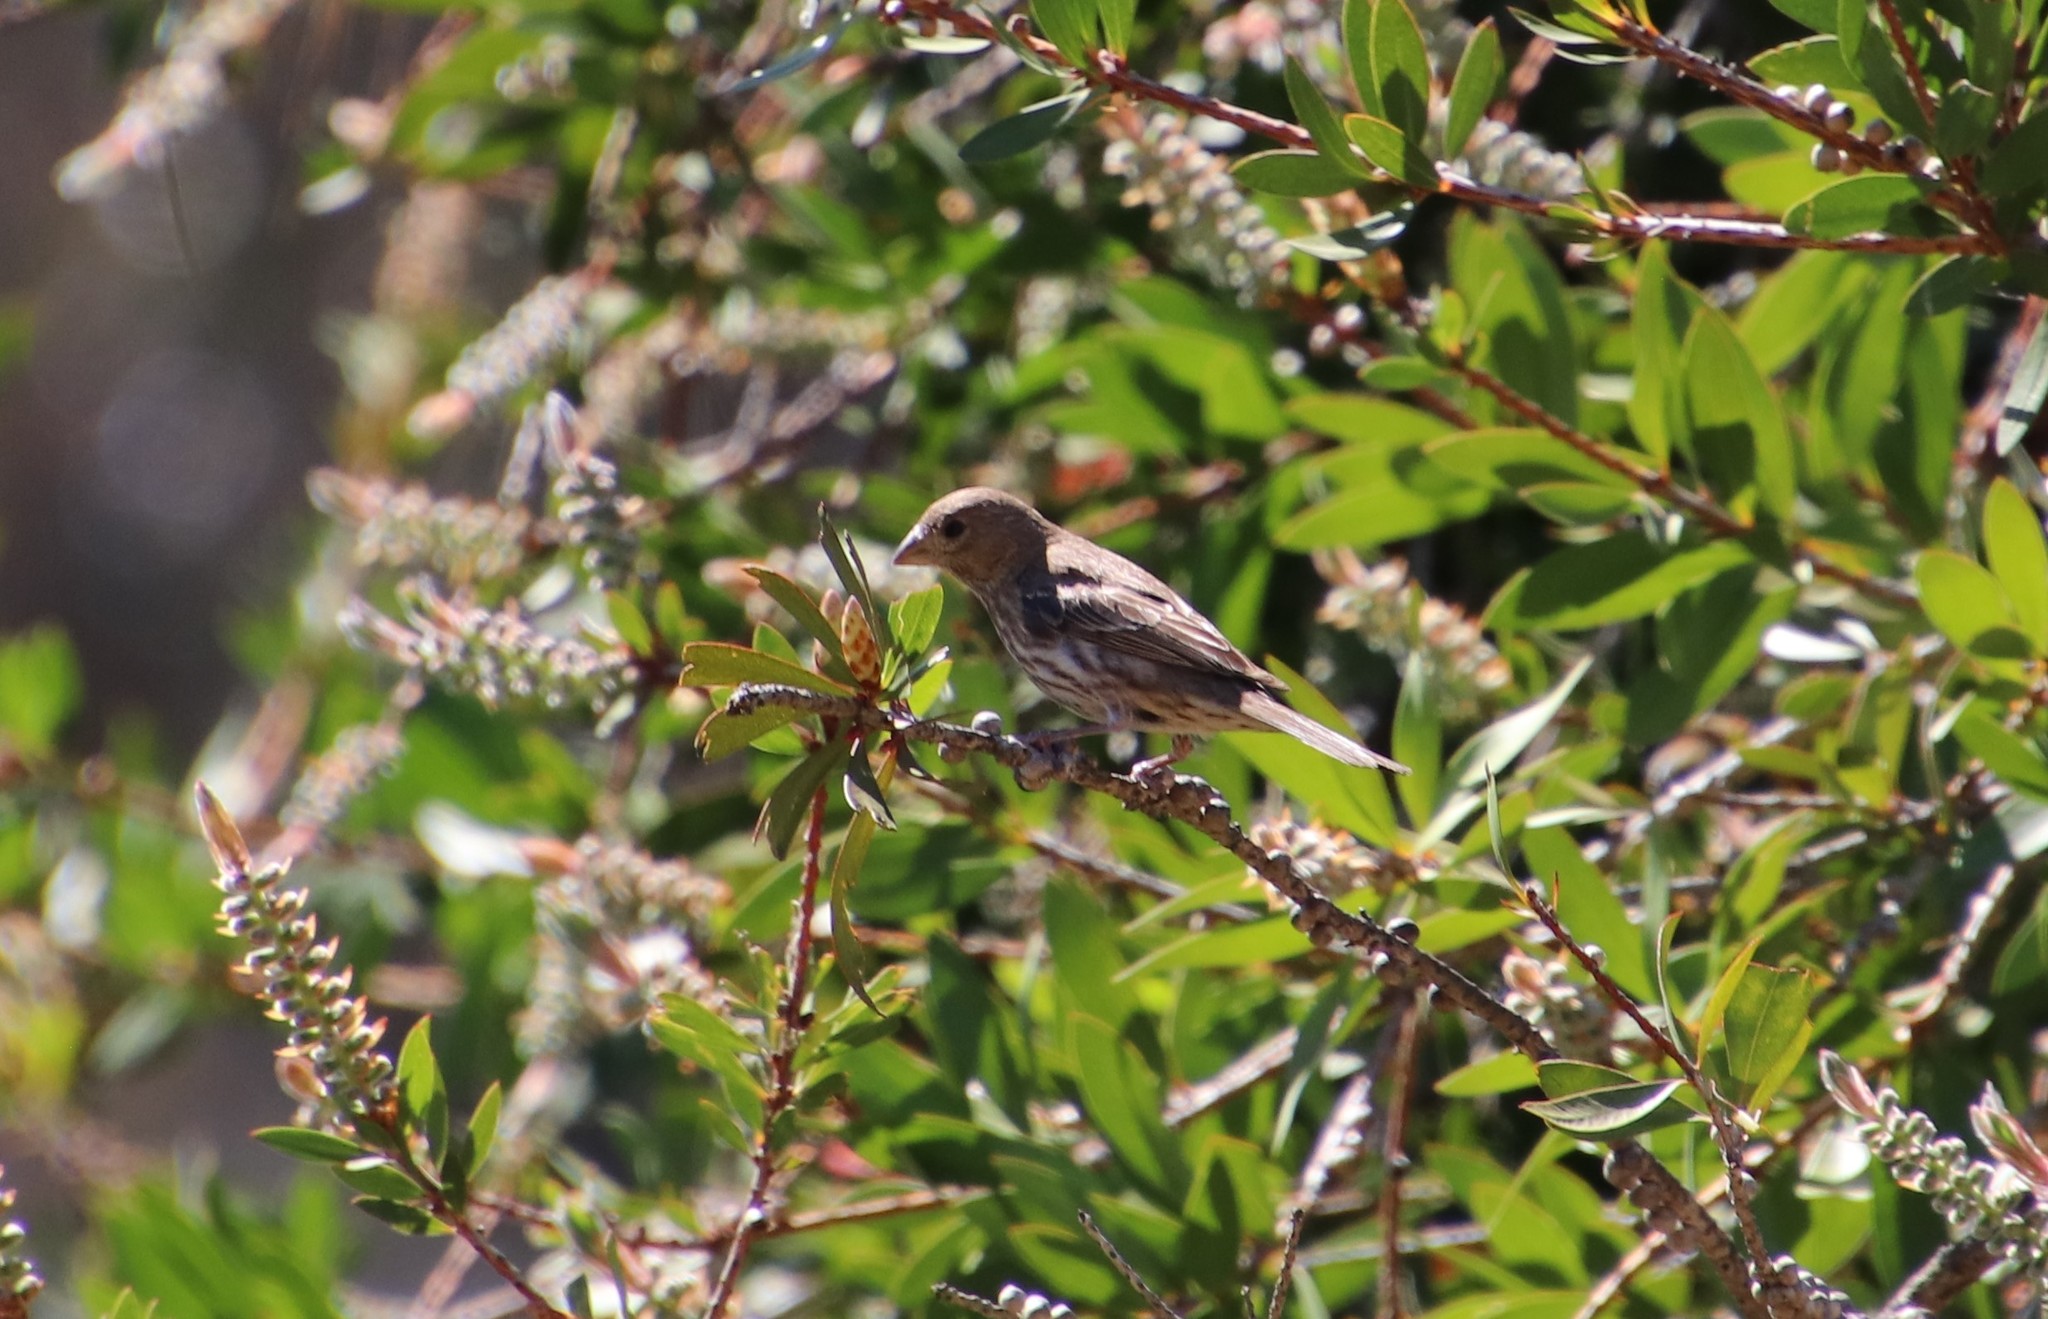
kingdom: Animalia
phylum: Chordata
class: Aves
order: Passeriformes
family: Fringillidae
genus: Haemorhous
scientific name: Haemorhous mexicanus
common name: House finch
